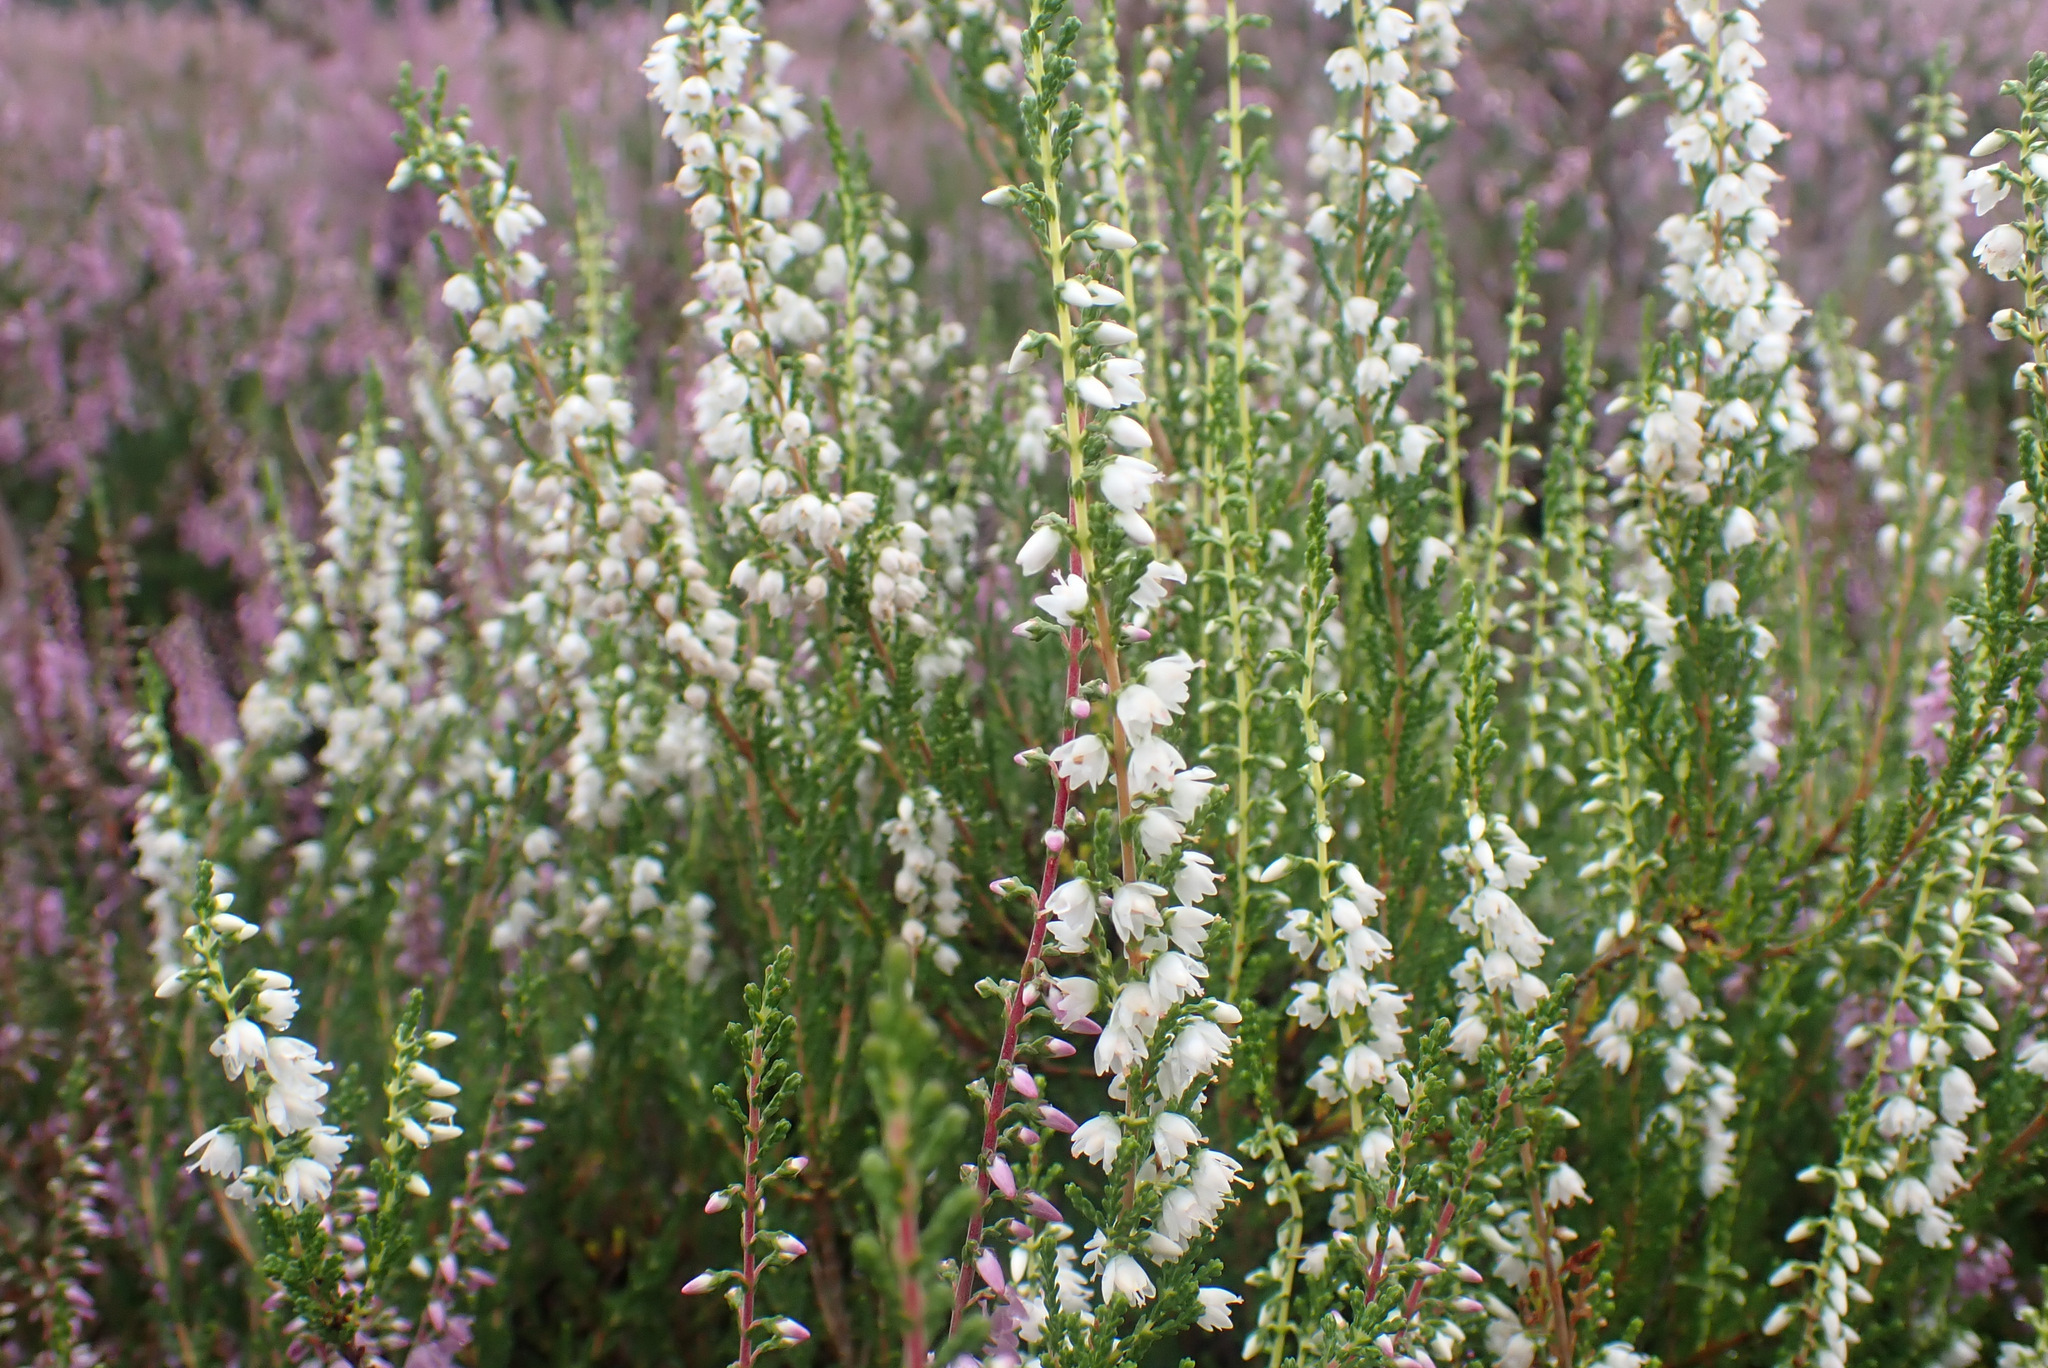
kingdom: Plantae
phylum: Tracheophyta
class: Magnoliopsida
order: Ericales
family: Ericaceae
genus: Calluna
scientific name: Calluna vulgaris
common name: Heather
